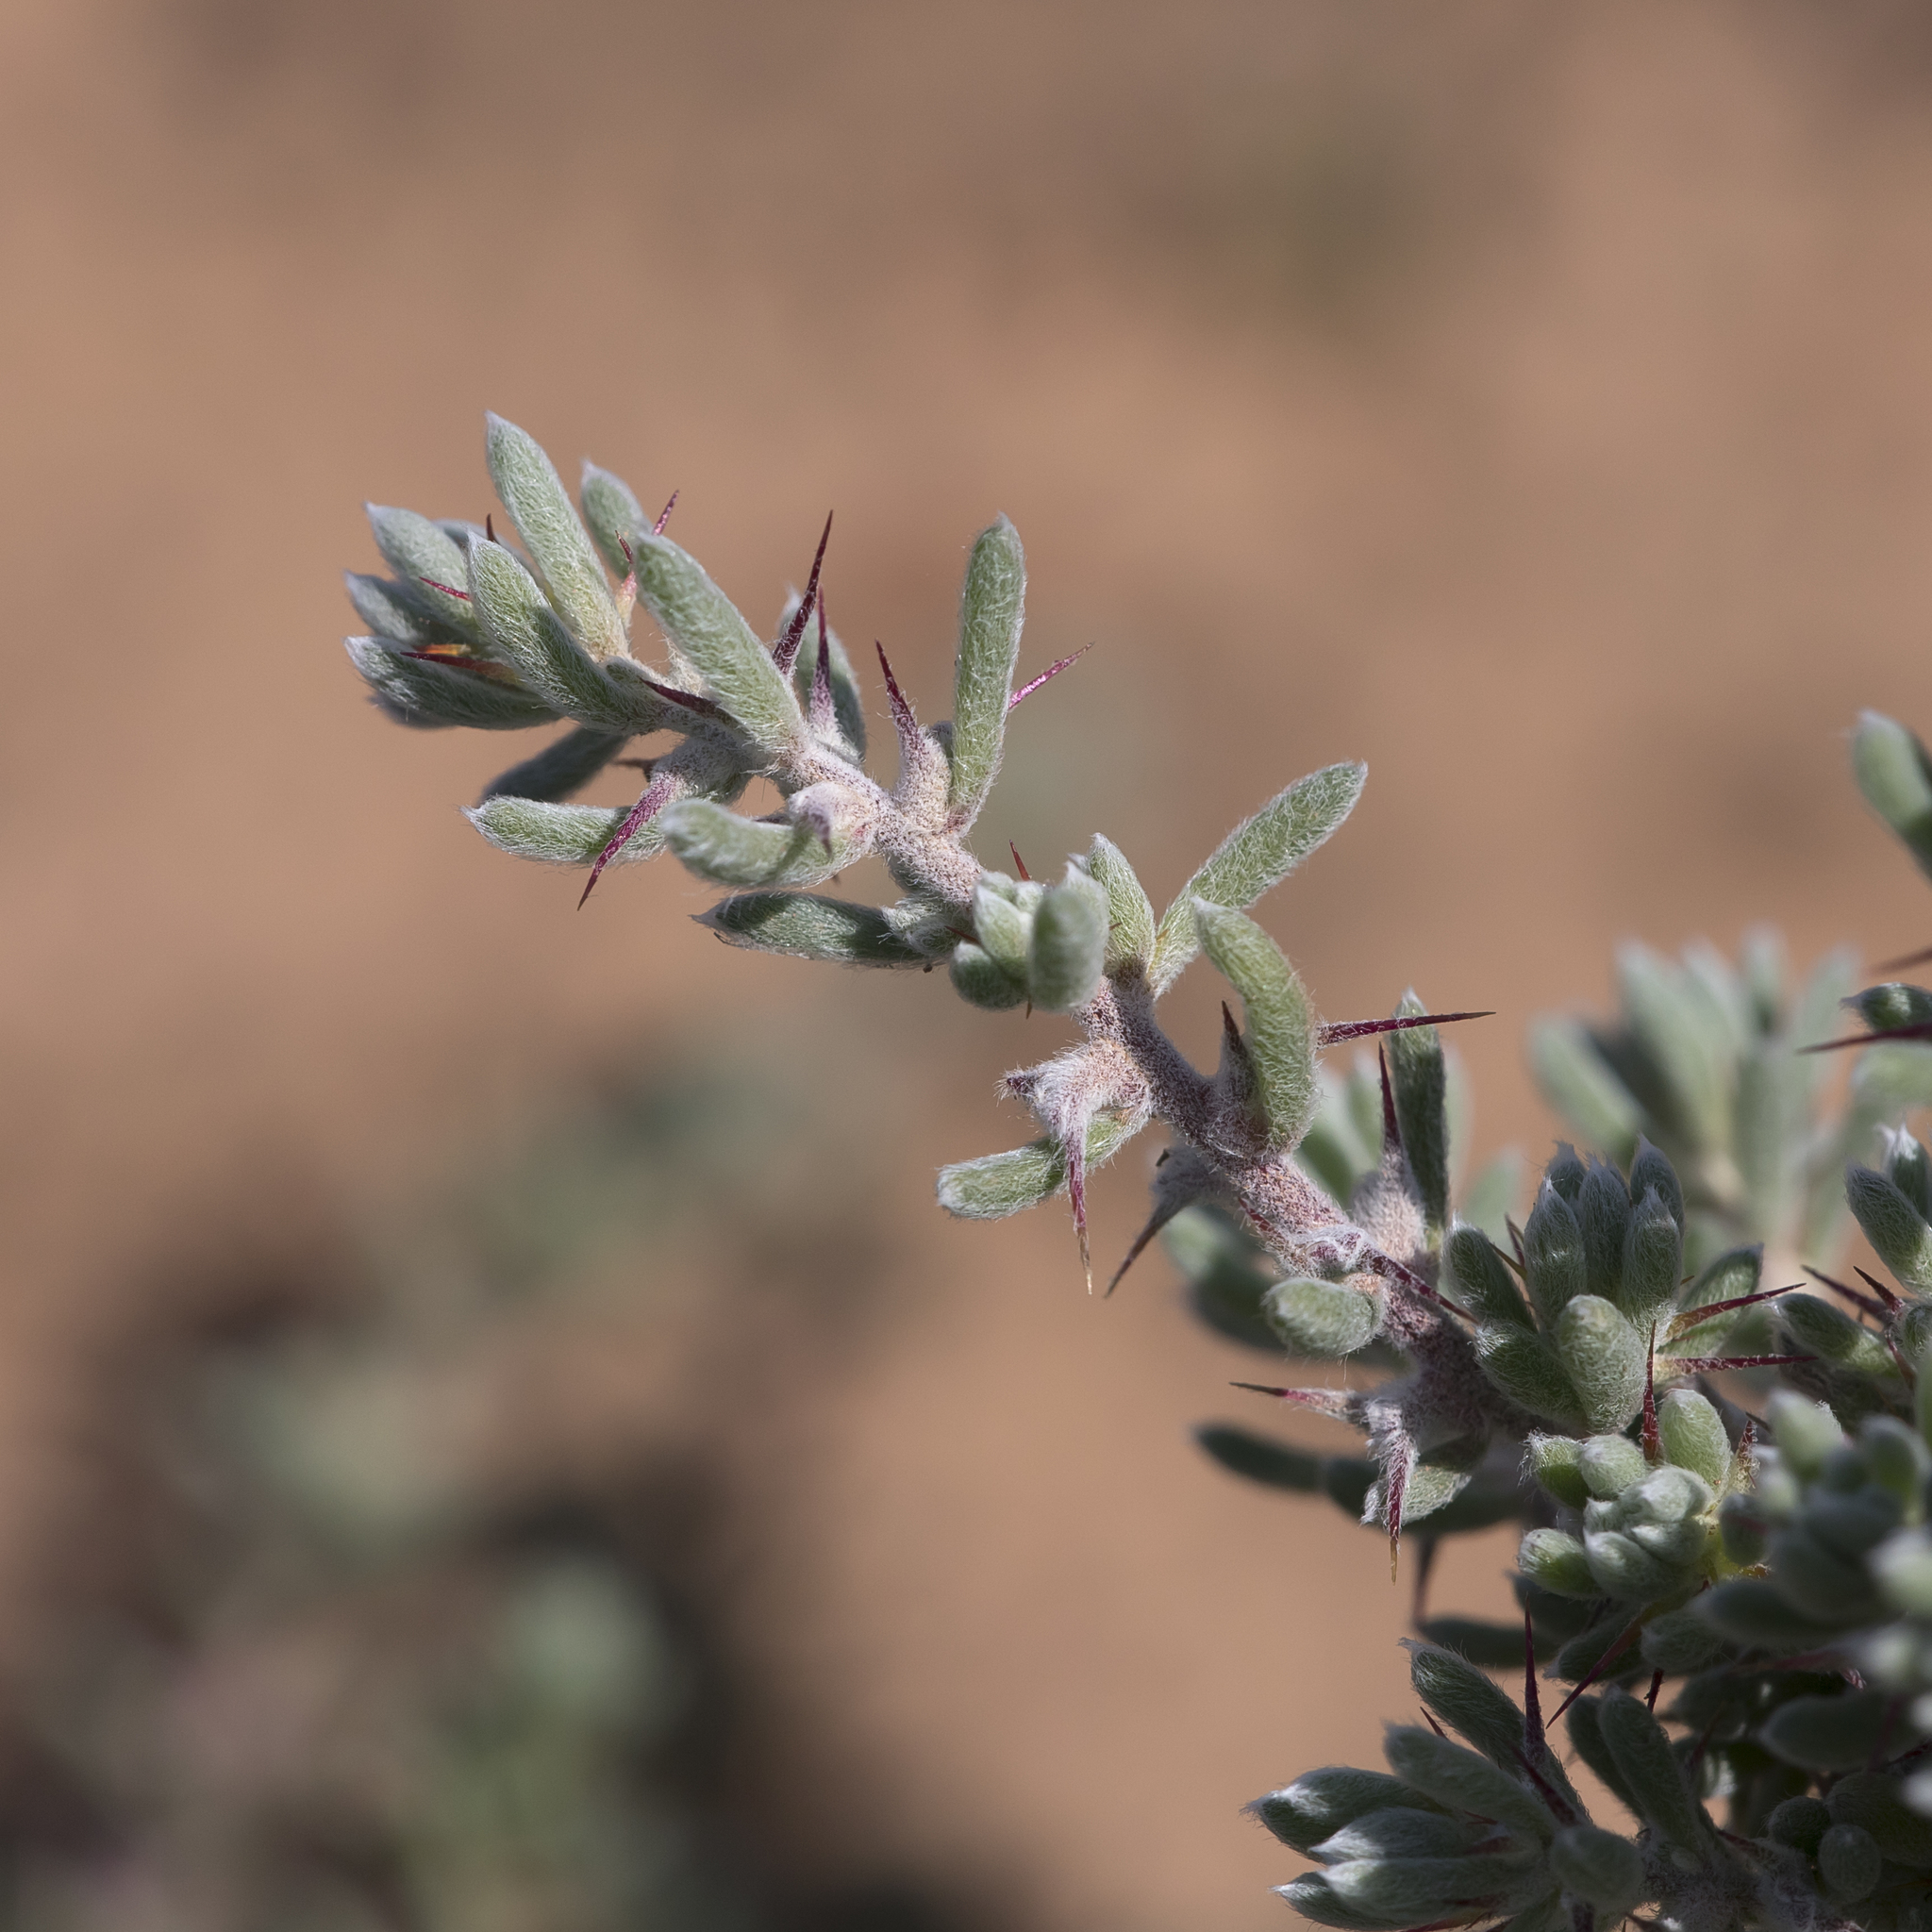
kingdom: Plantae
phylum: Tracheophyta
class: Magnoliopsida
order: Caryophyllales
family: Amaranthaceae
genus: Sclerolaena
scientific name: Sclerolaena obliquicuspis
